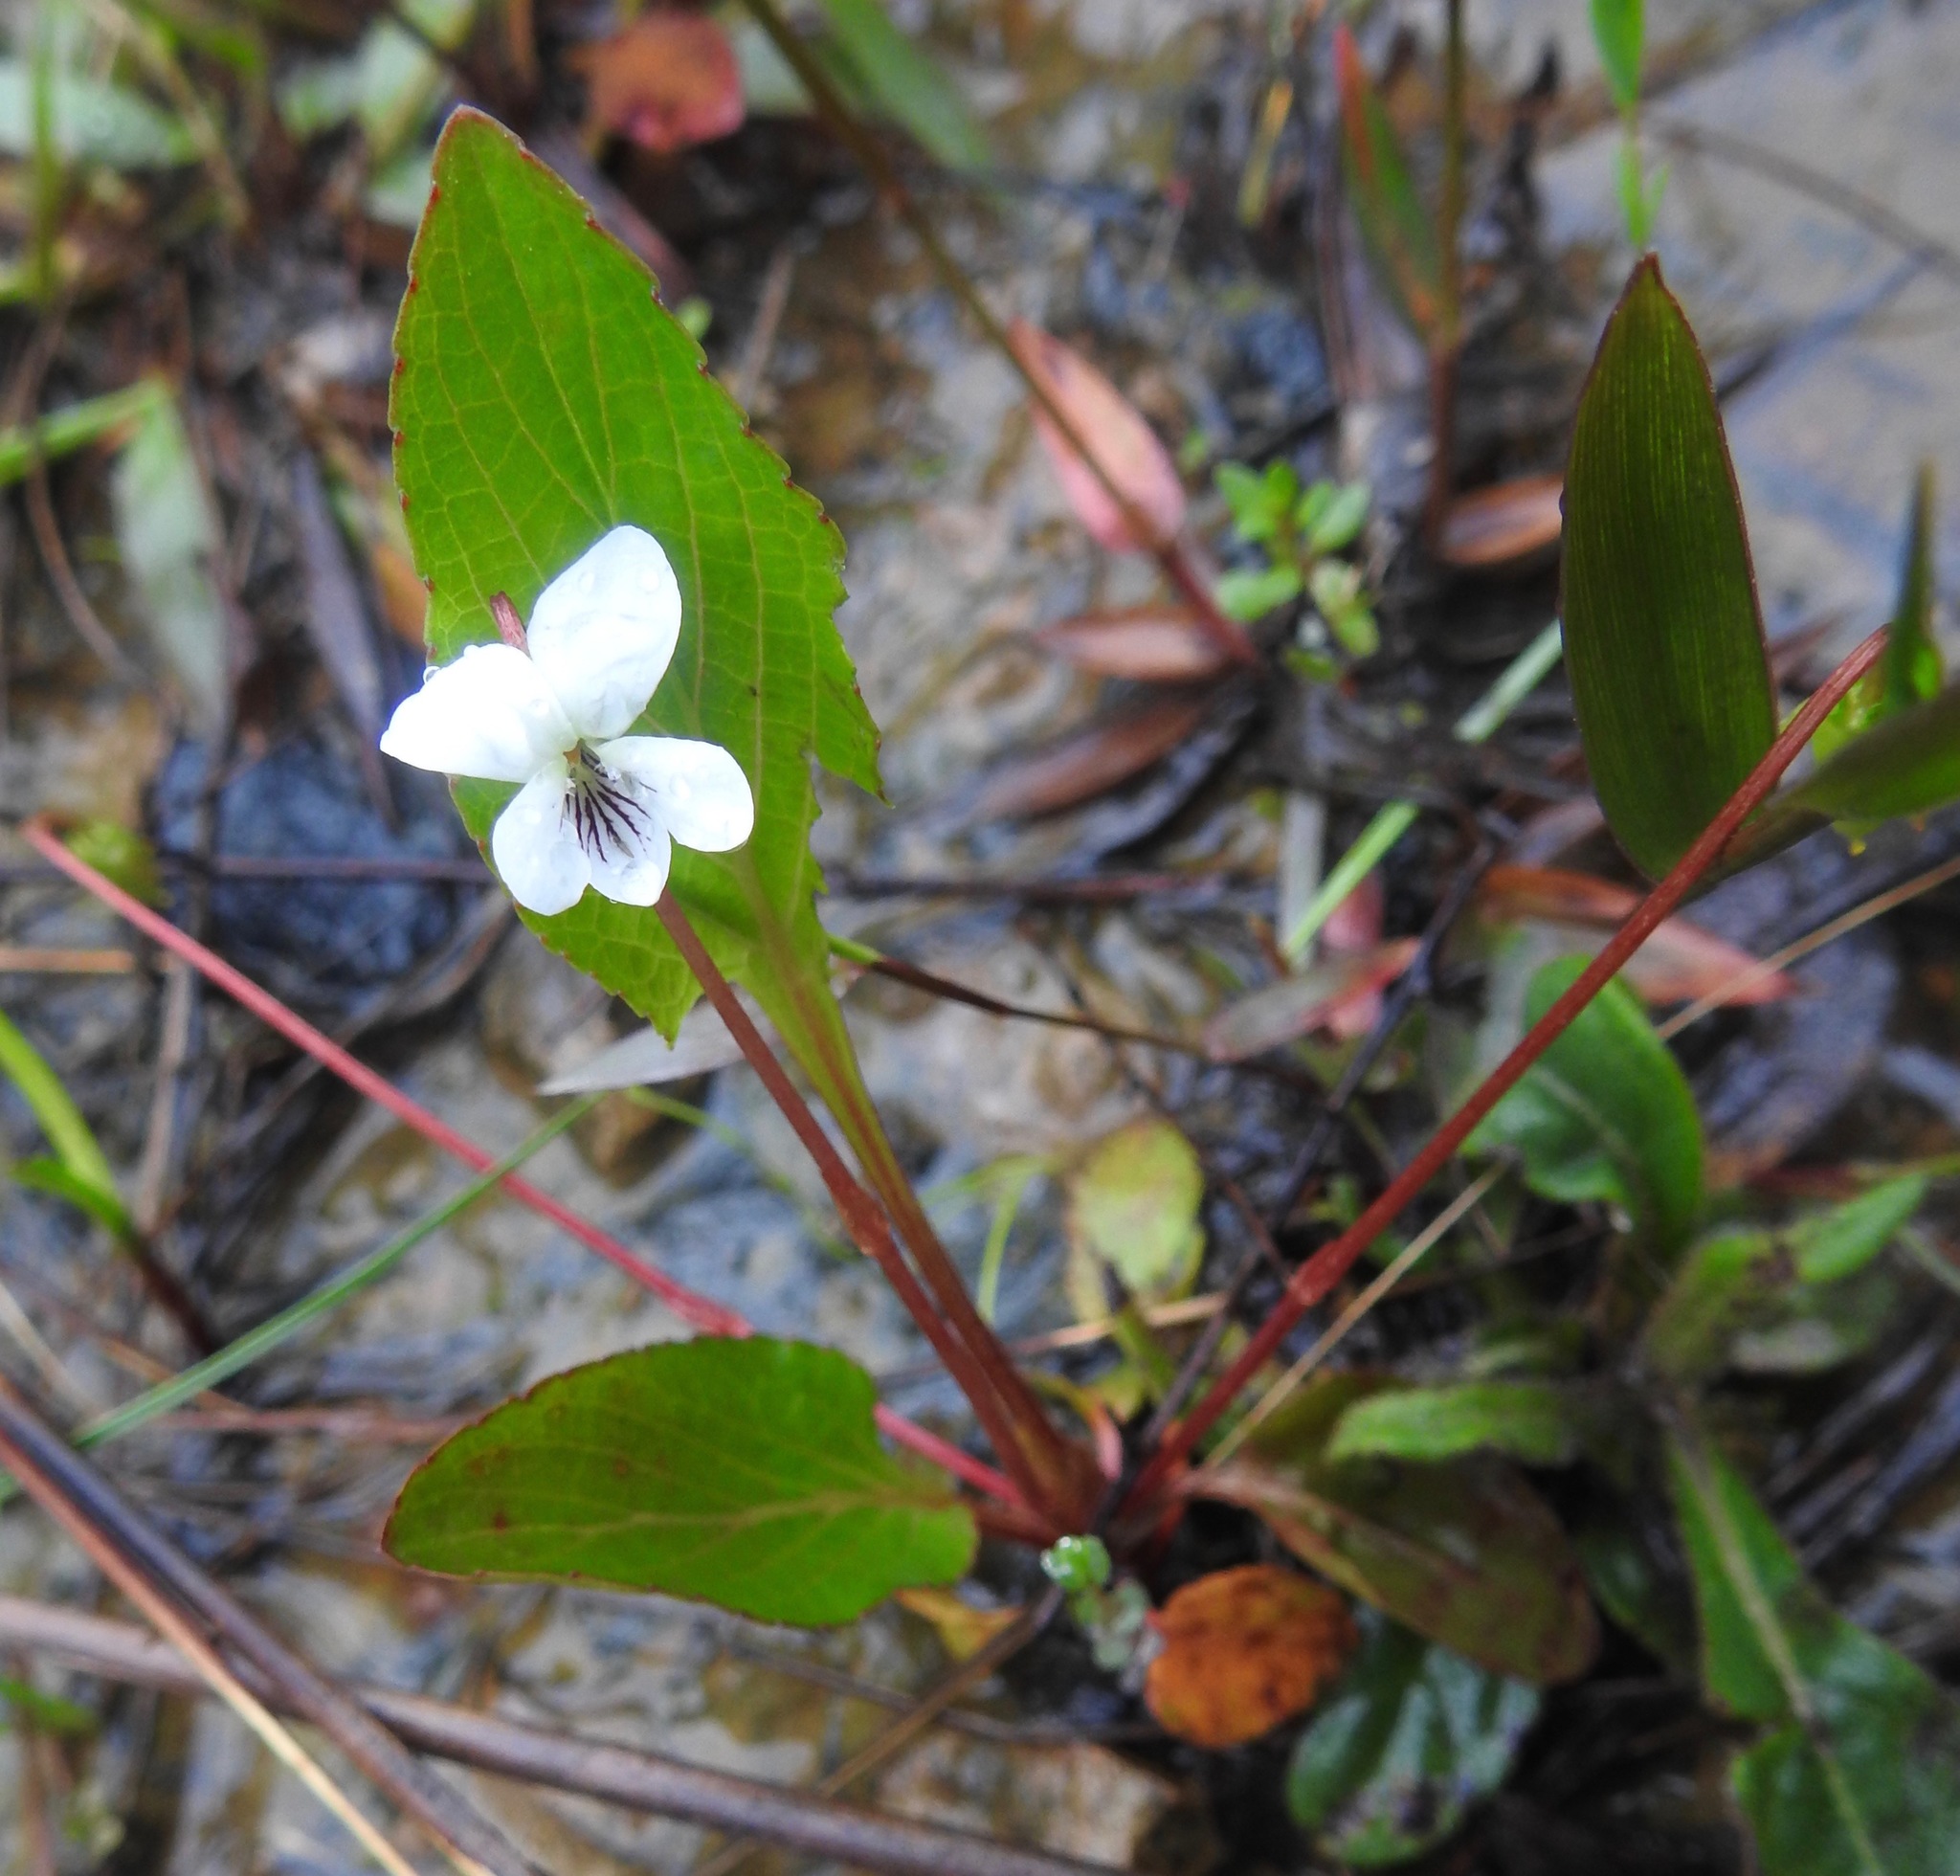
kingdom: Plantae
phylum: Tracheophyta
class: Magnoliopsida
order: Malpighiales
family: Violaceae
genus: Viola
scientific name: Viola primulifolia
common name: Primrose-leaf violet
